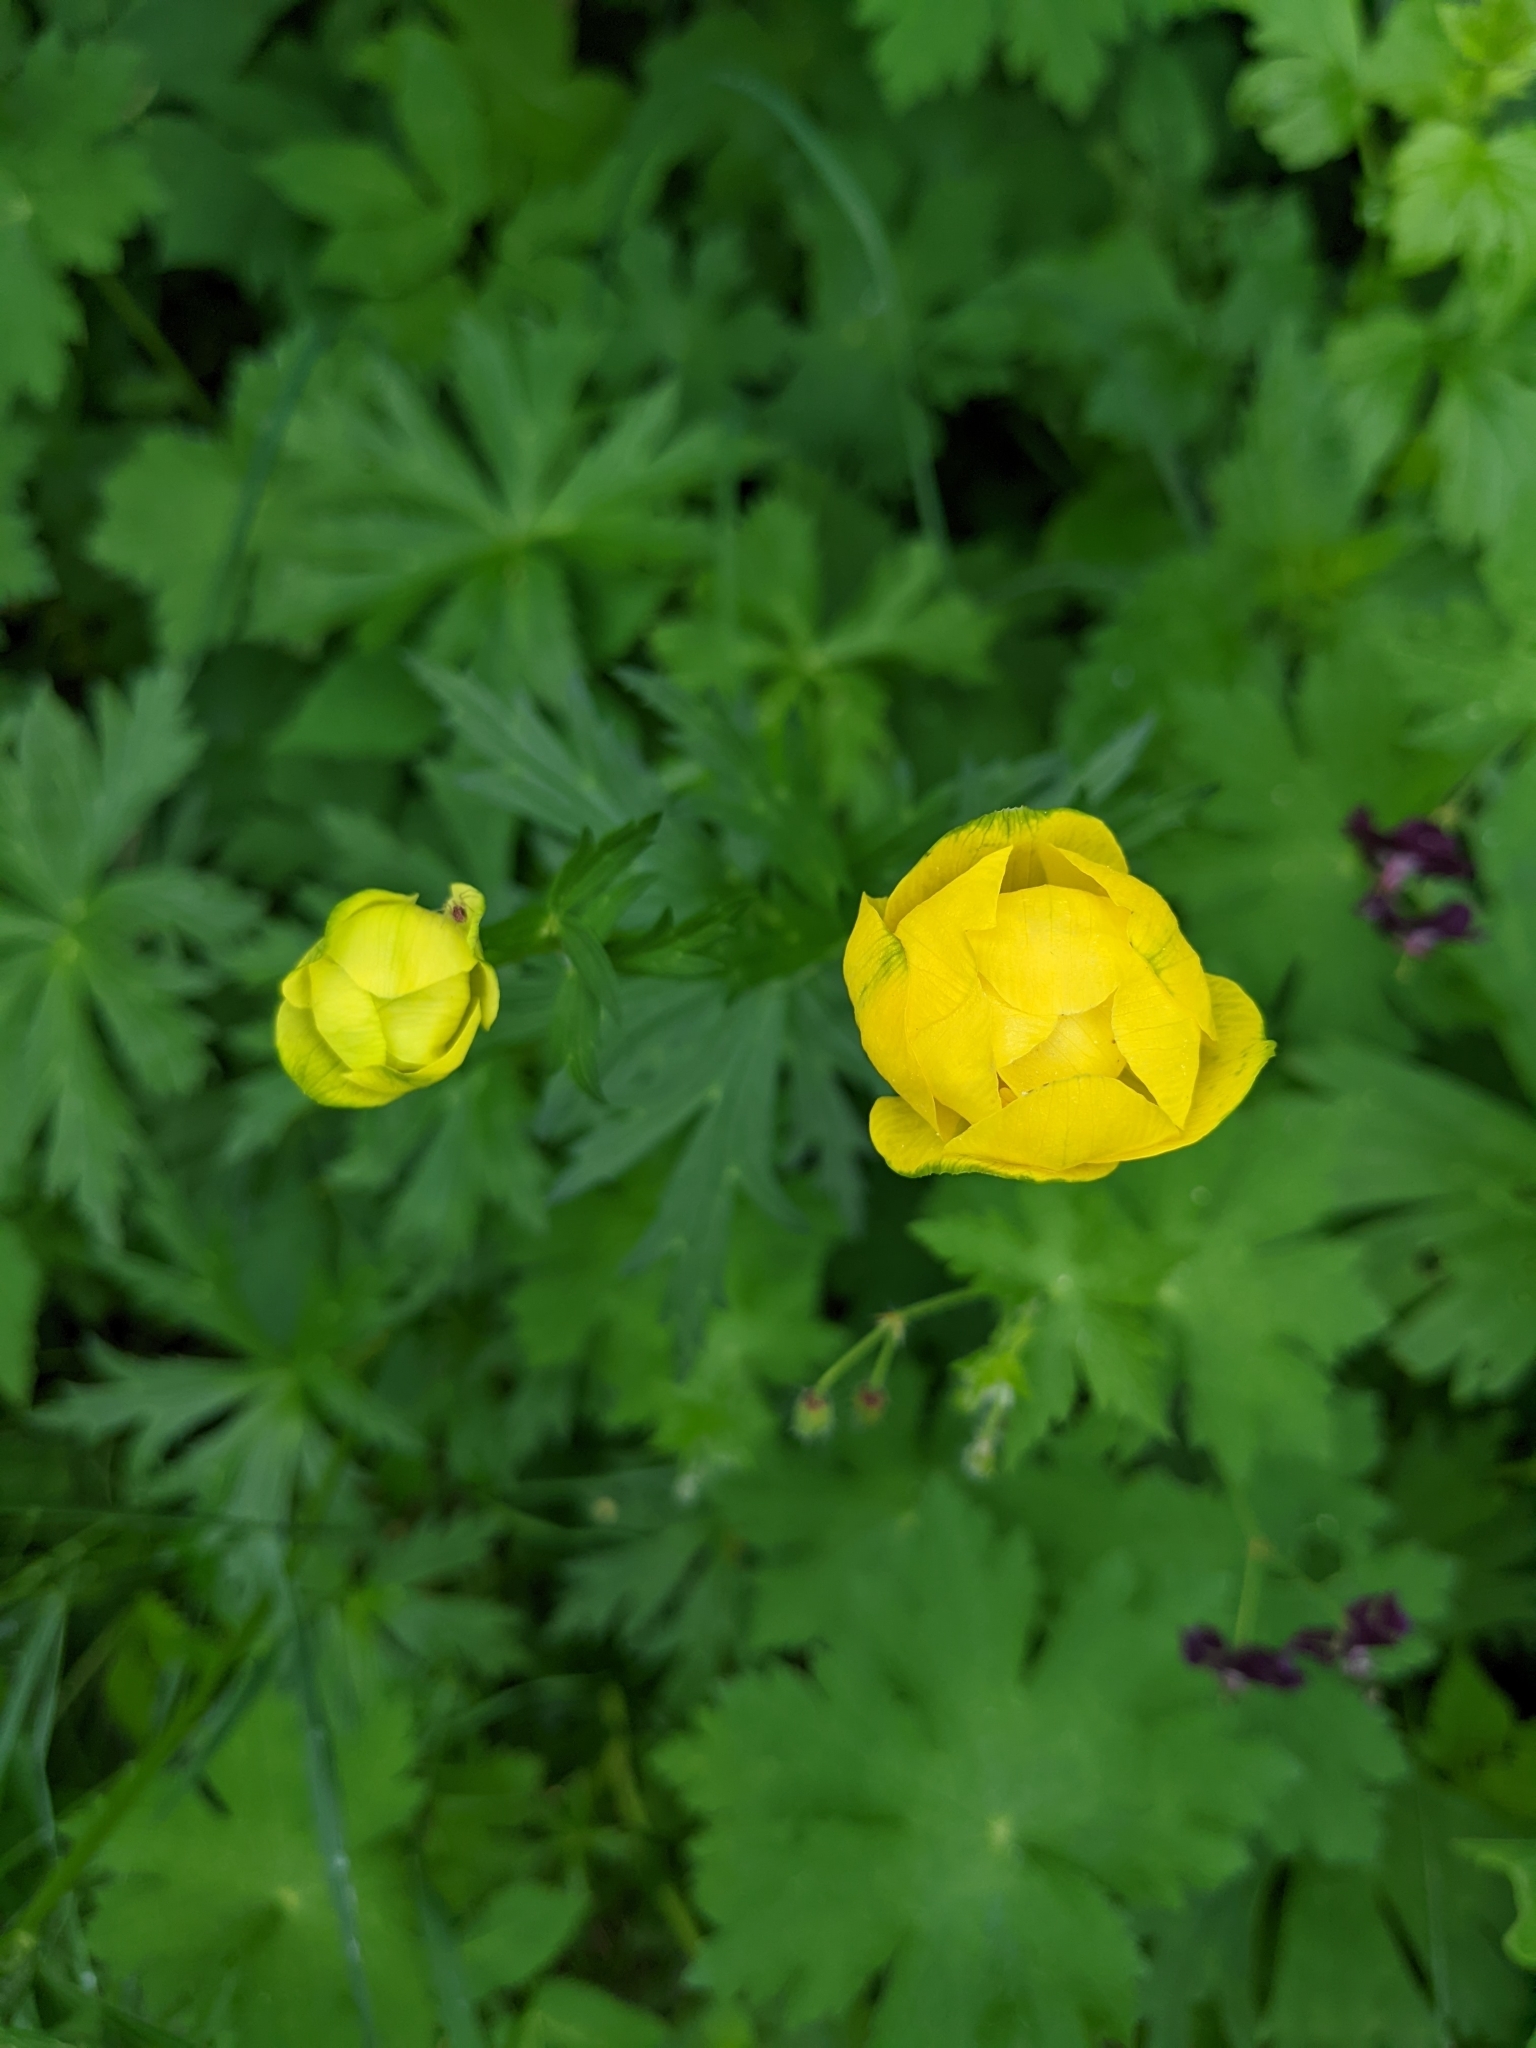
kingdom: Plantae
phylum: Tracheophyta
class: Magnoliopsida
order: Ranunculales
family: Ranunculaceae
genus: Trollius
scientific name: Trollius europaeus
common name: European globeflower
